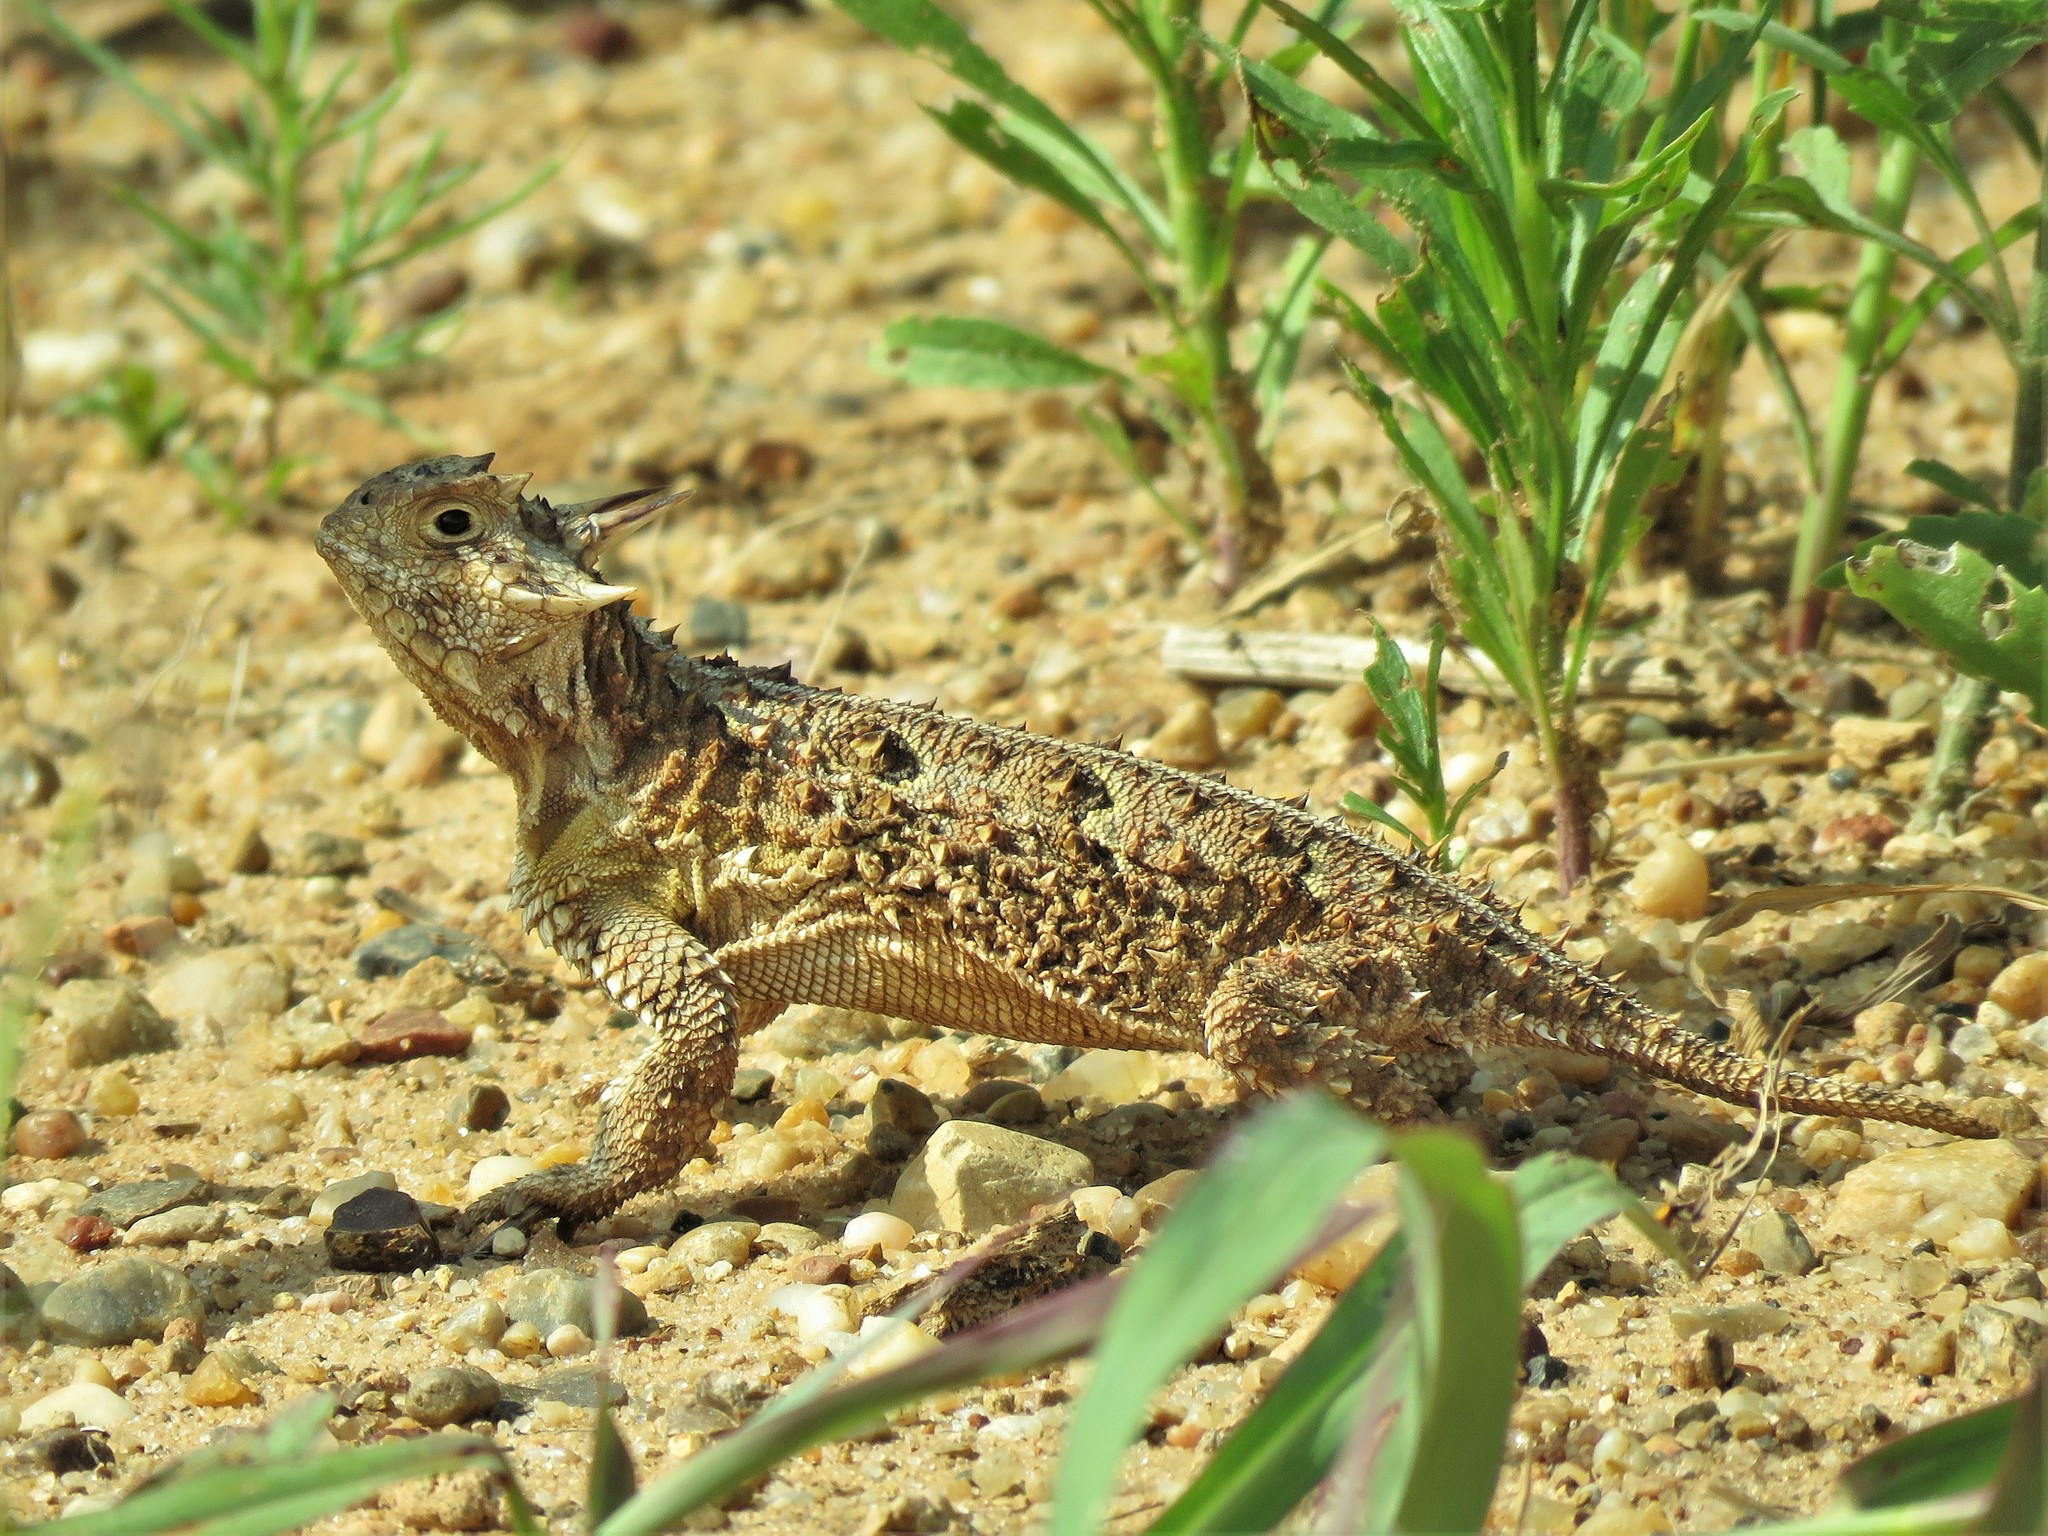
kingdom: Animalia
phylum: Chordata
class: Squamata
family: Phrynosomatidae
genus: Phrynosoma
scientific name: Phrynosoma cornutum
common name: Texas horned lizard
